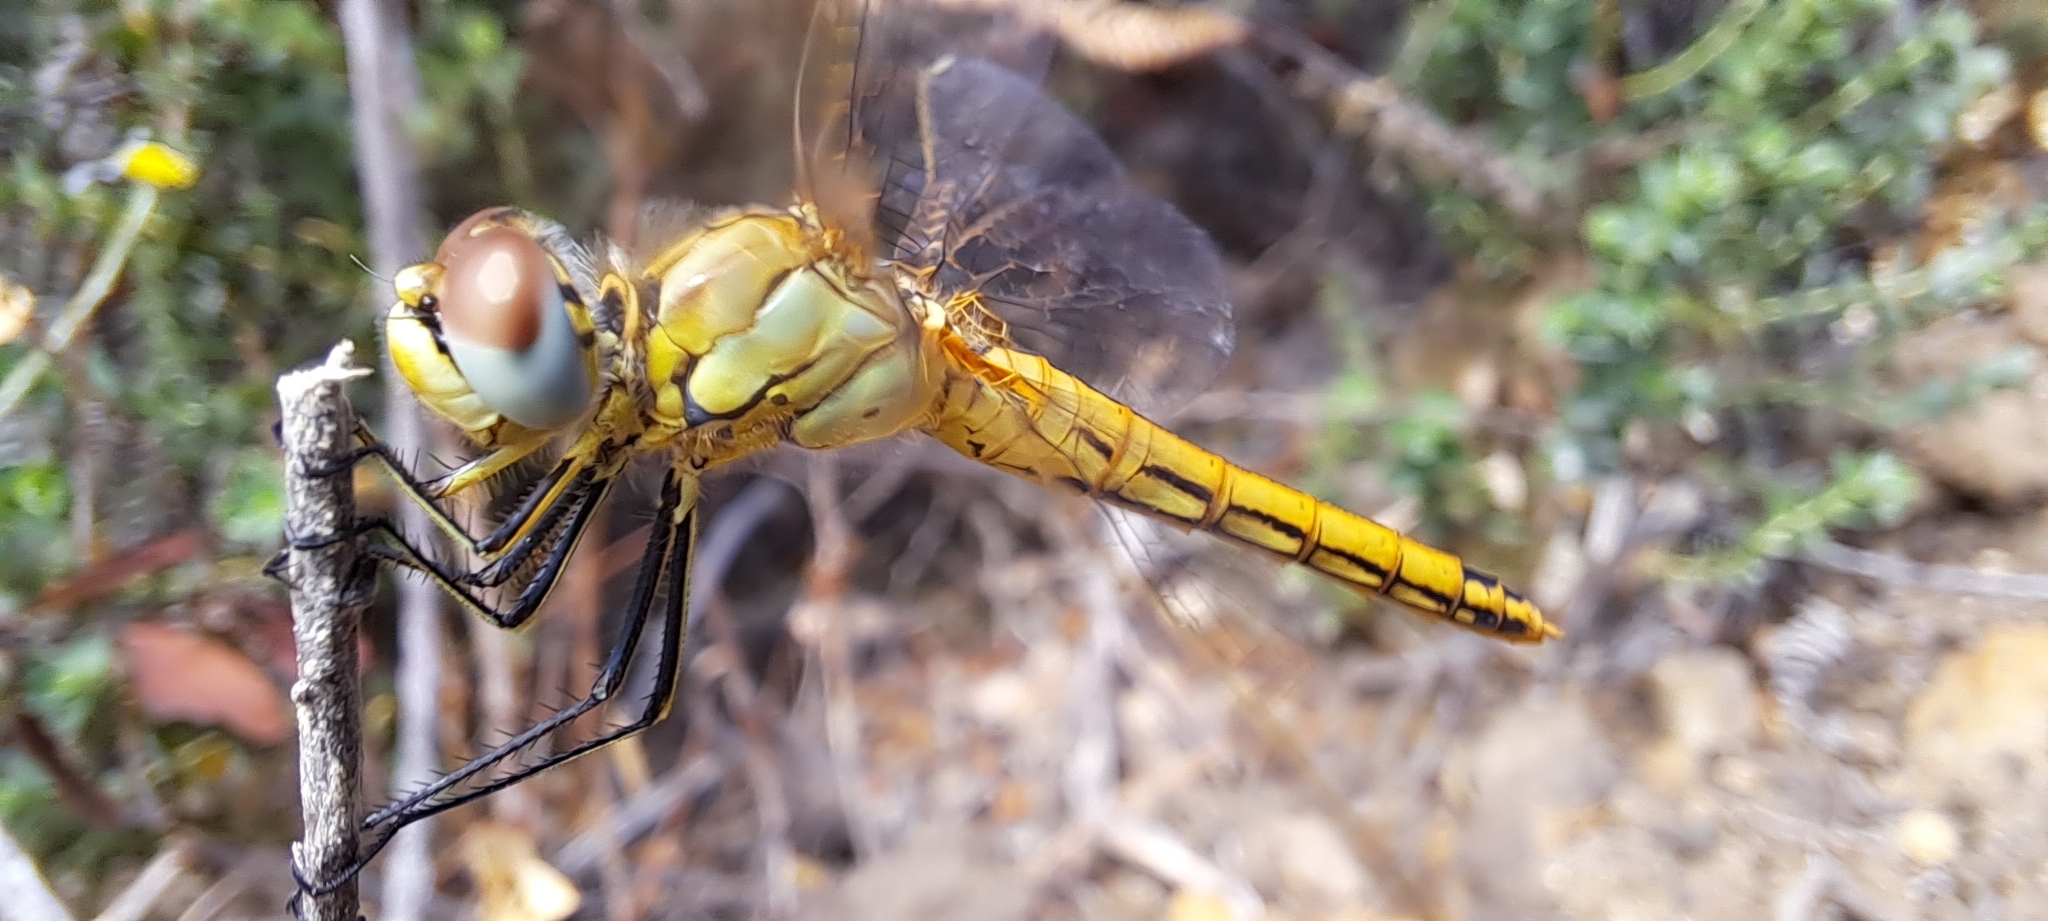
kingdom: Animalia
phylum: Arthropoda
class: Insecta
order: Odonata
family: Libellulidae
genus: Sympetrum
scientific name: Sympetrum fonscolombii
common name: Red-veined darter
